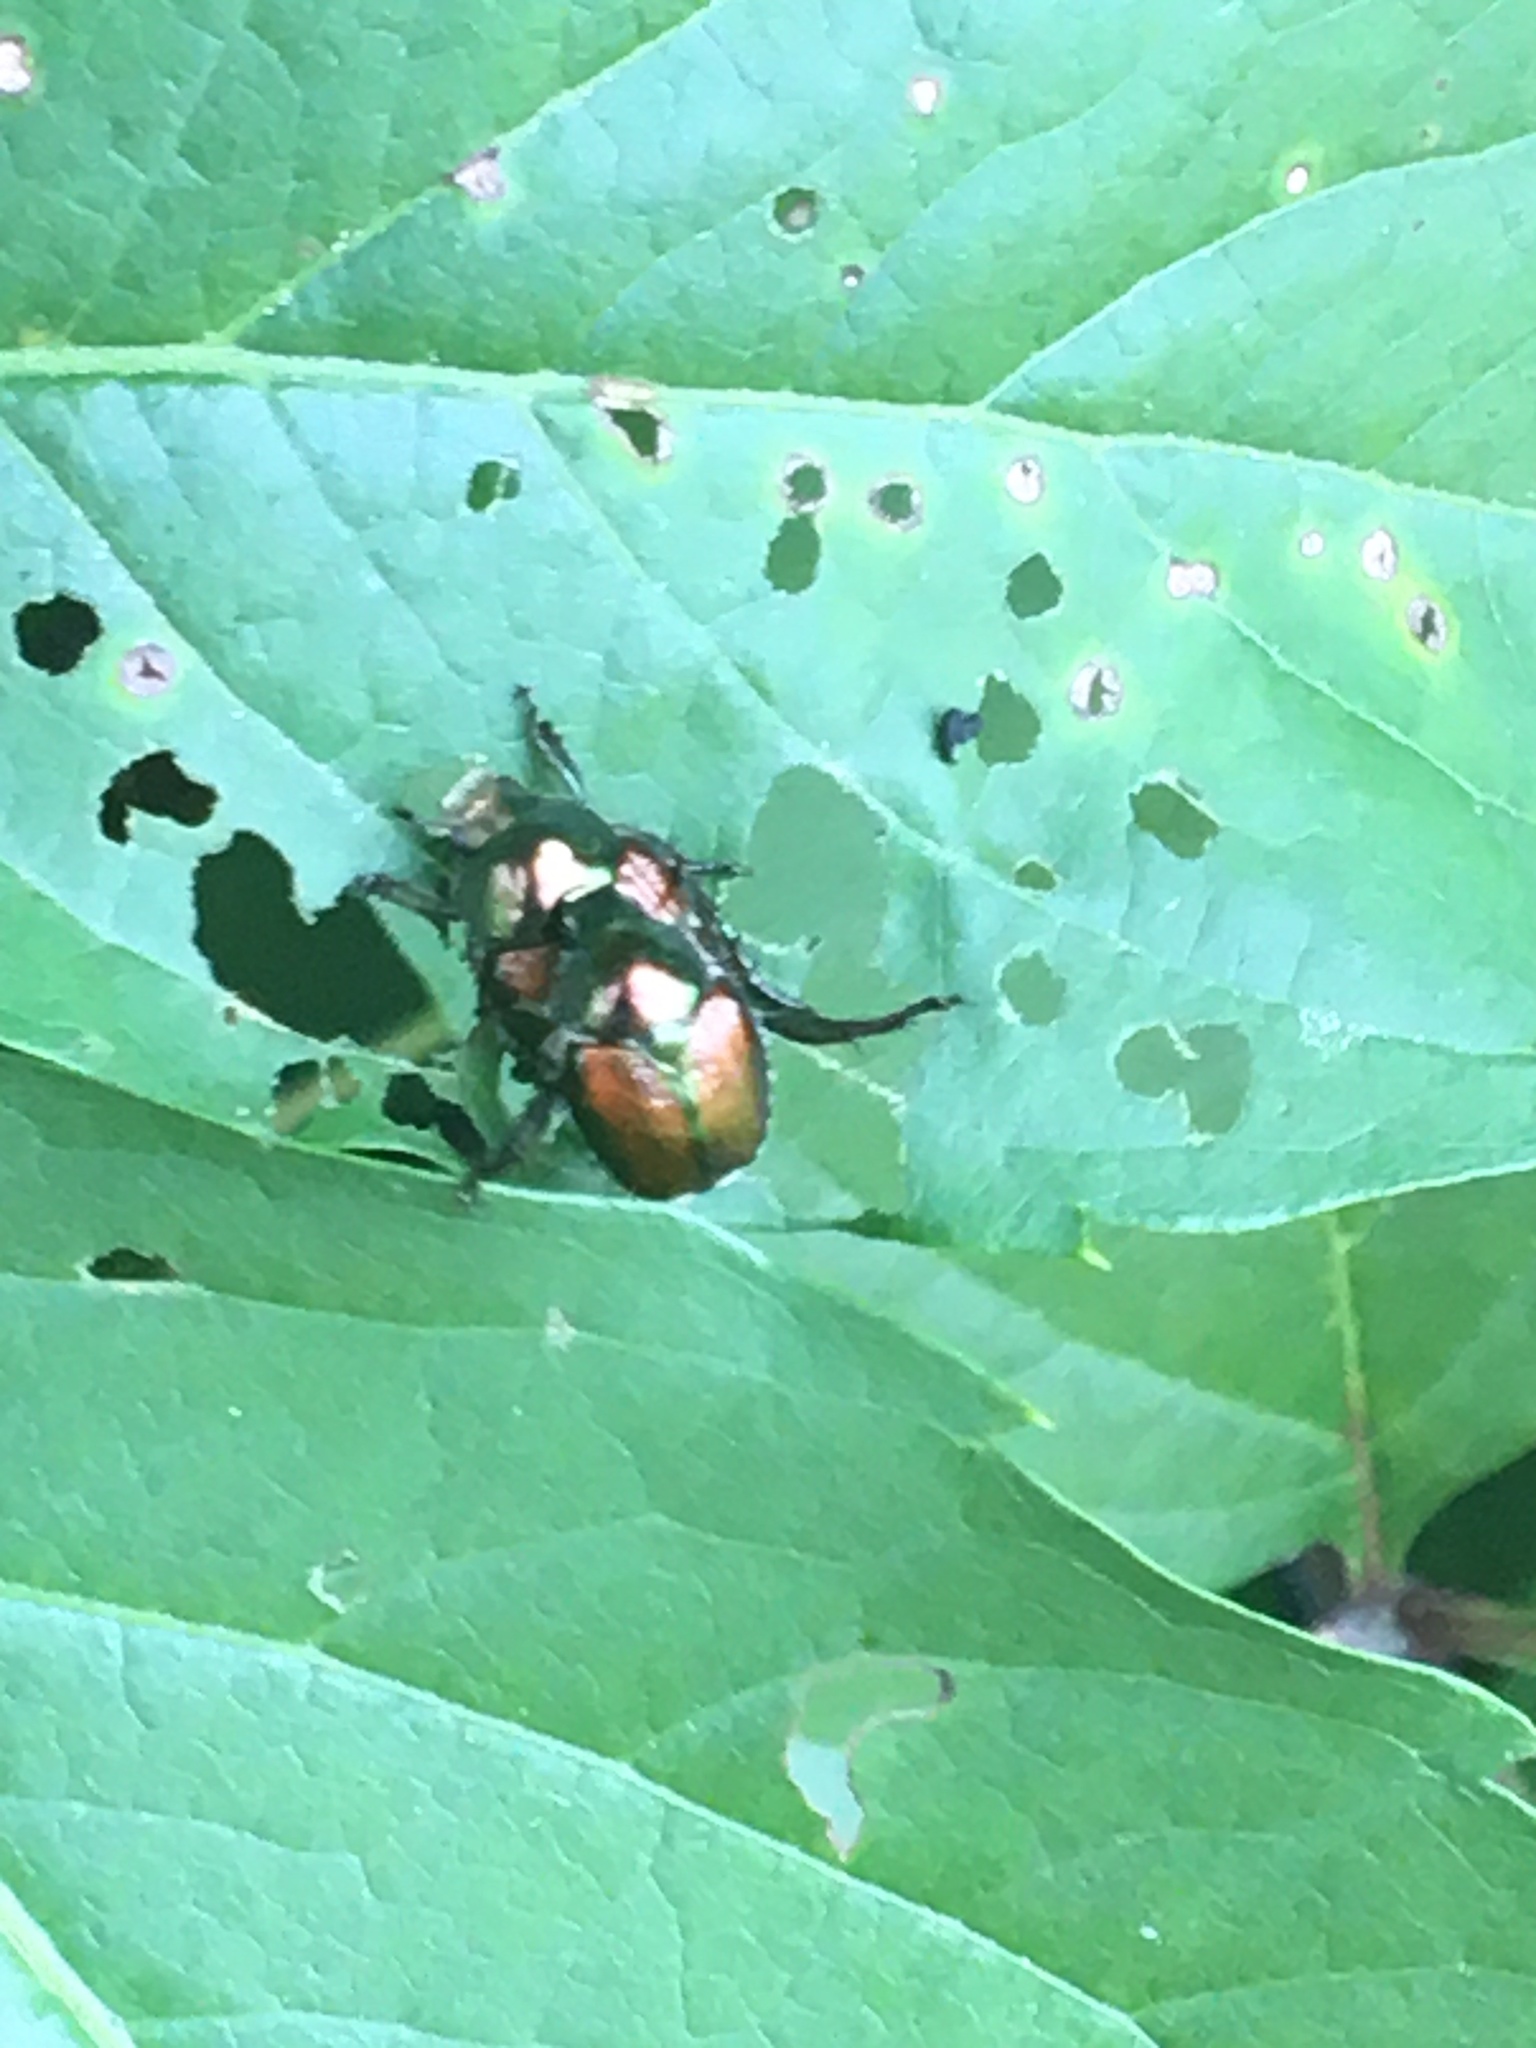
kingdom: Animalia
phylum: Arthropoda
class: Insecta
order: Coleoptera
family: Scarabaeidae
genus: Popillia
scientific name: Popillia japonica
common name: Japanese beetle
